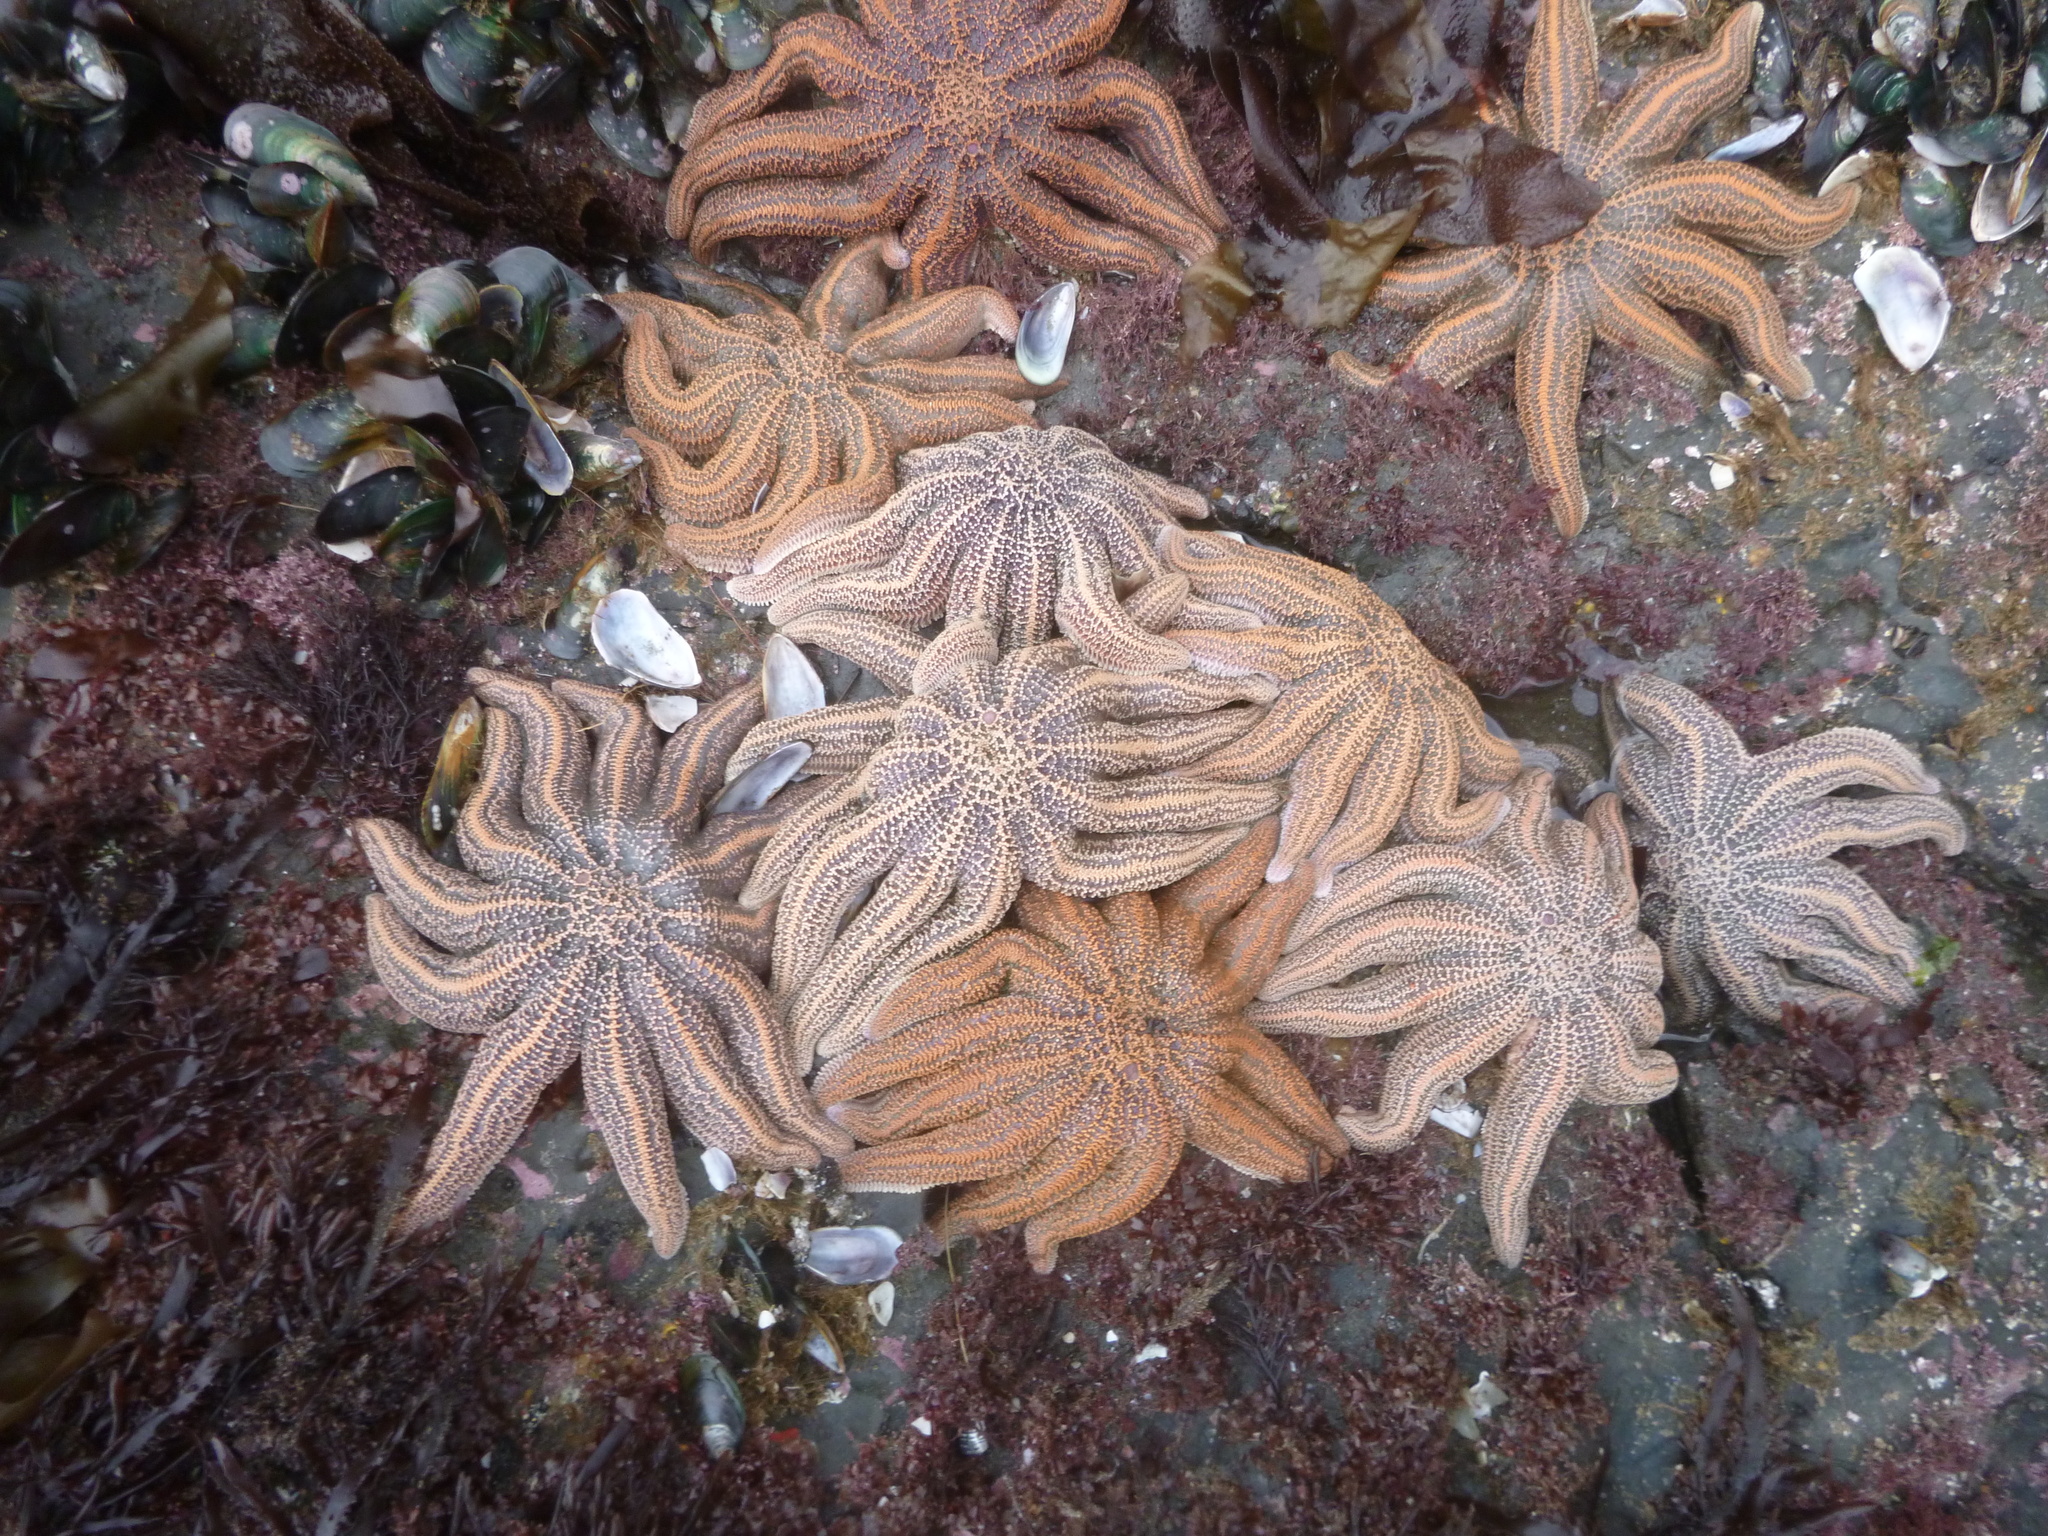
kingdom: Animalia
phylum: Echinodermata
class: Asteroidea
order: Forcipulatida
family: Stichasteridae
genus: Stichaster
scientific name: Stichaster australis
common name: Reef starfish
